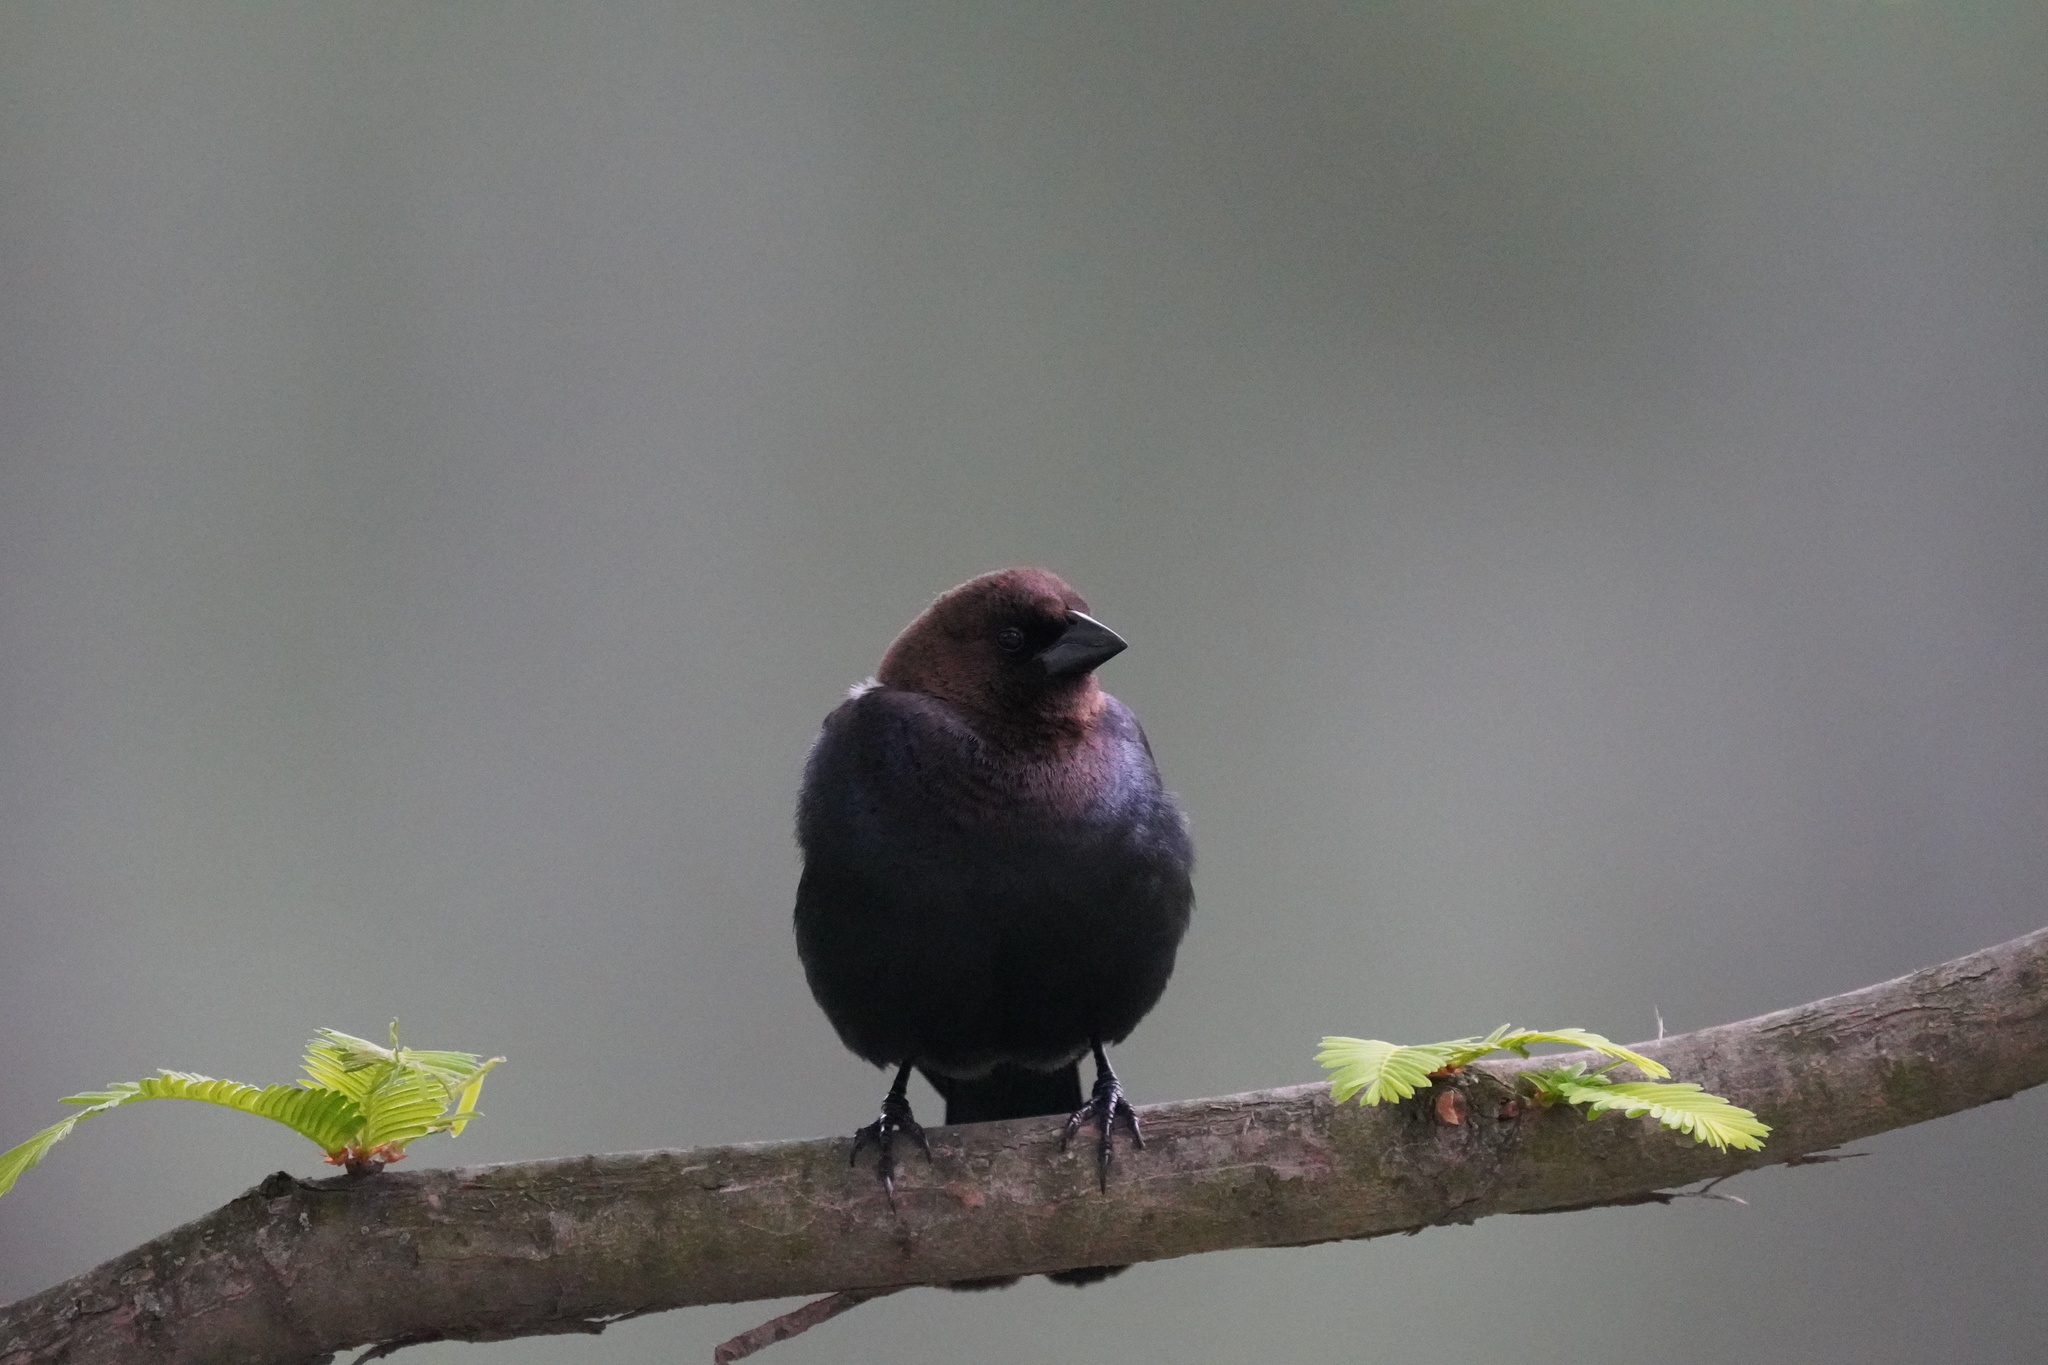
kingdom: Animalia
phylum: Chordata
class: Aves
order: Passeriformes
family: Icteridae
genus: Molothrus
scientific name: Molothrus ater
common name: Brown-headed cowbird
